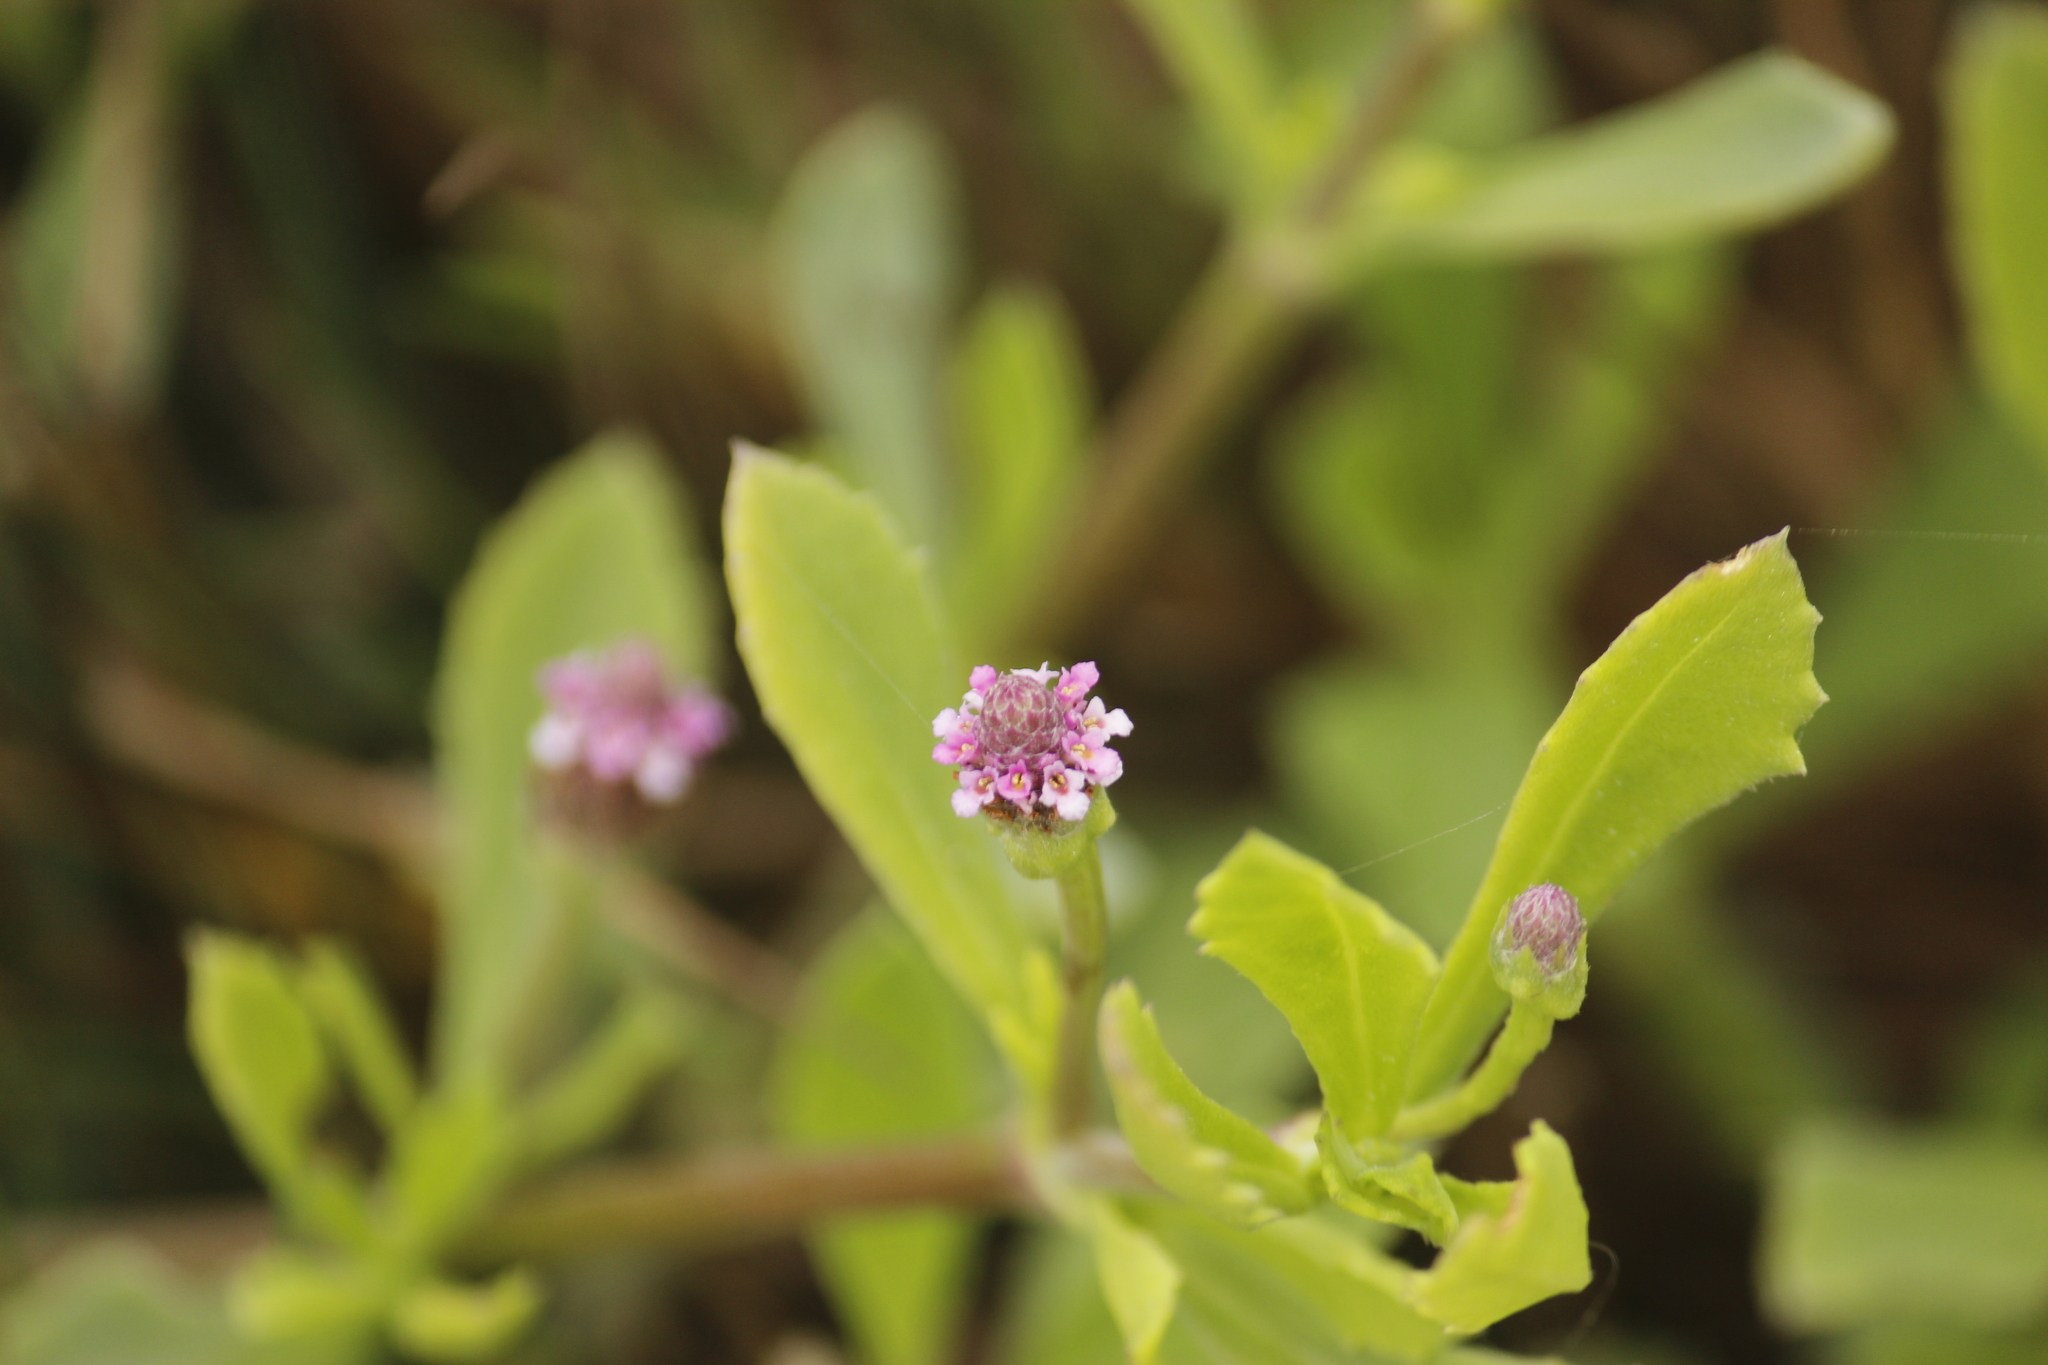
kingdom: Plantae
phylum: Tracheophyta
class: Magnoliopsida
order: Lamiales
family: Verbenaceae
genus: Phyla
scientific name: Phyla nodiflora
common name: Frogfruit
